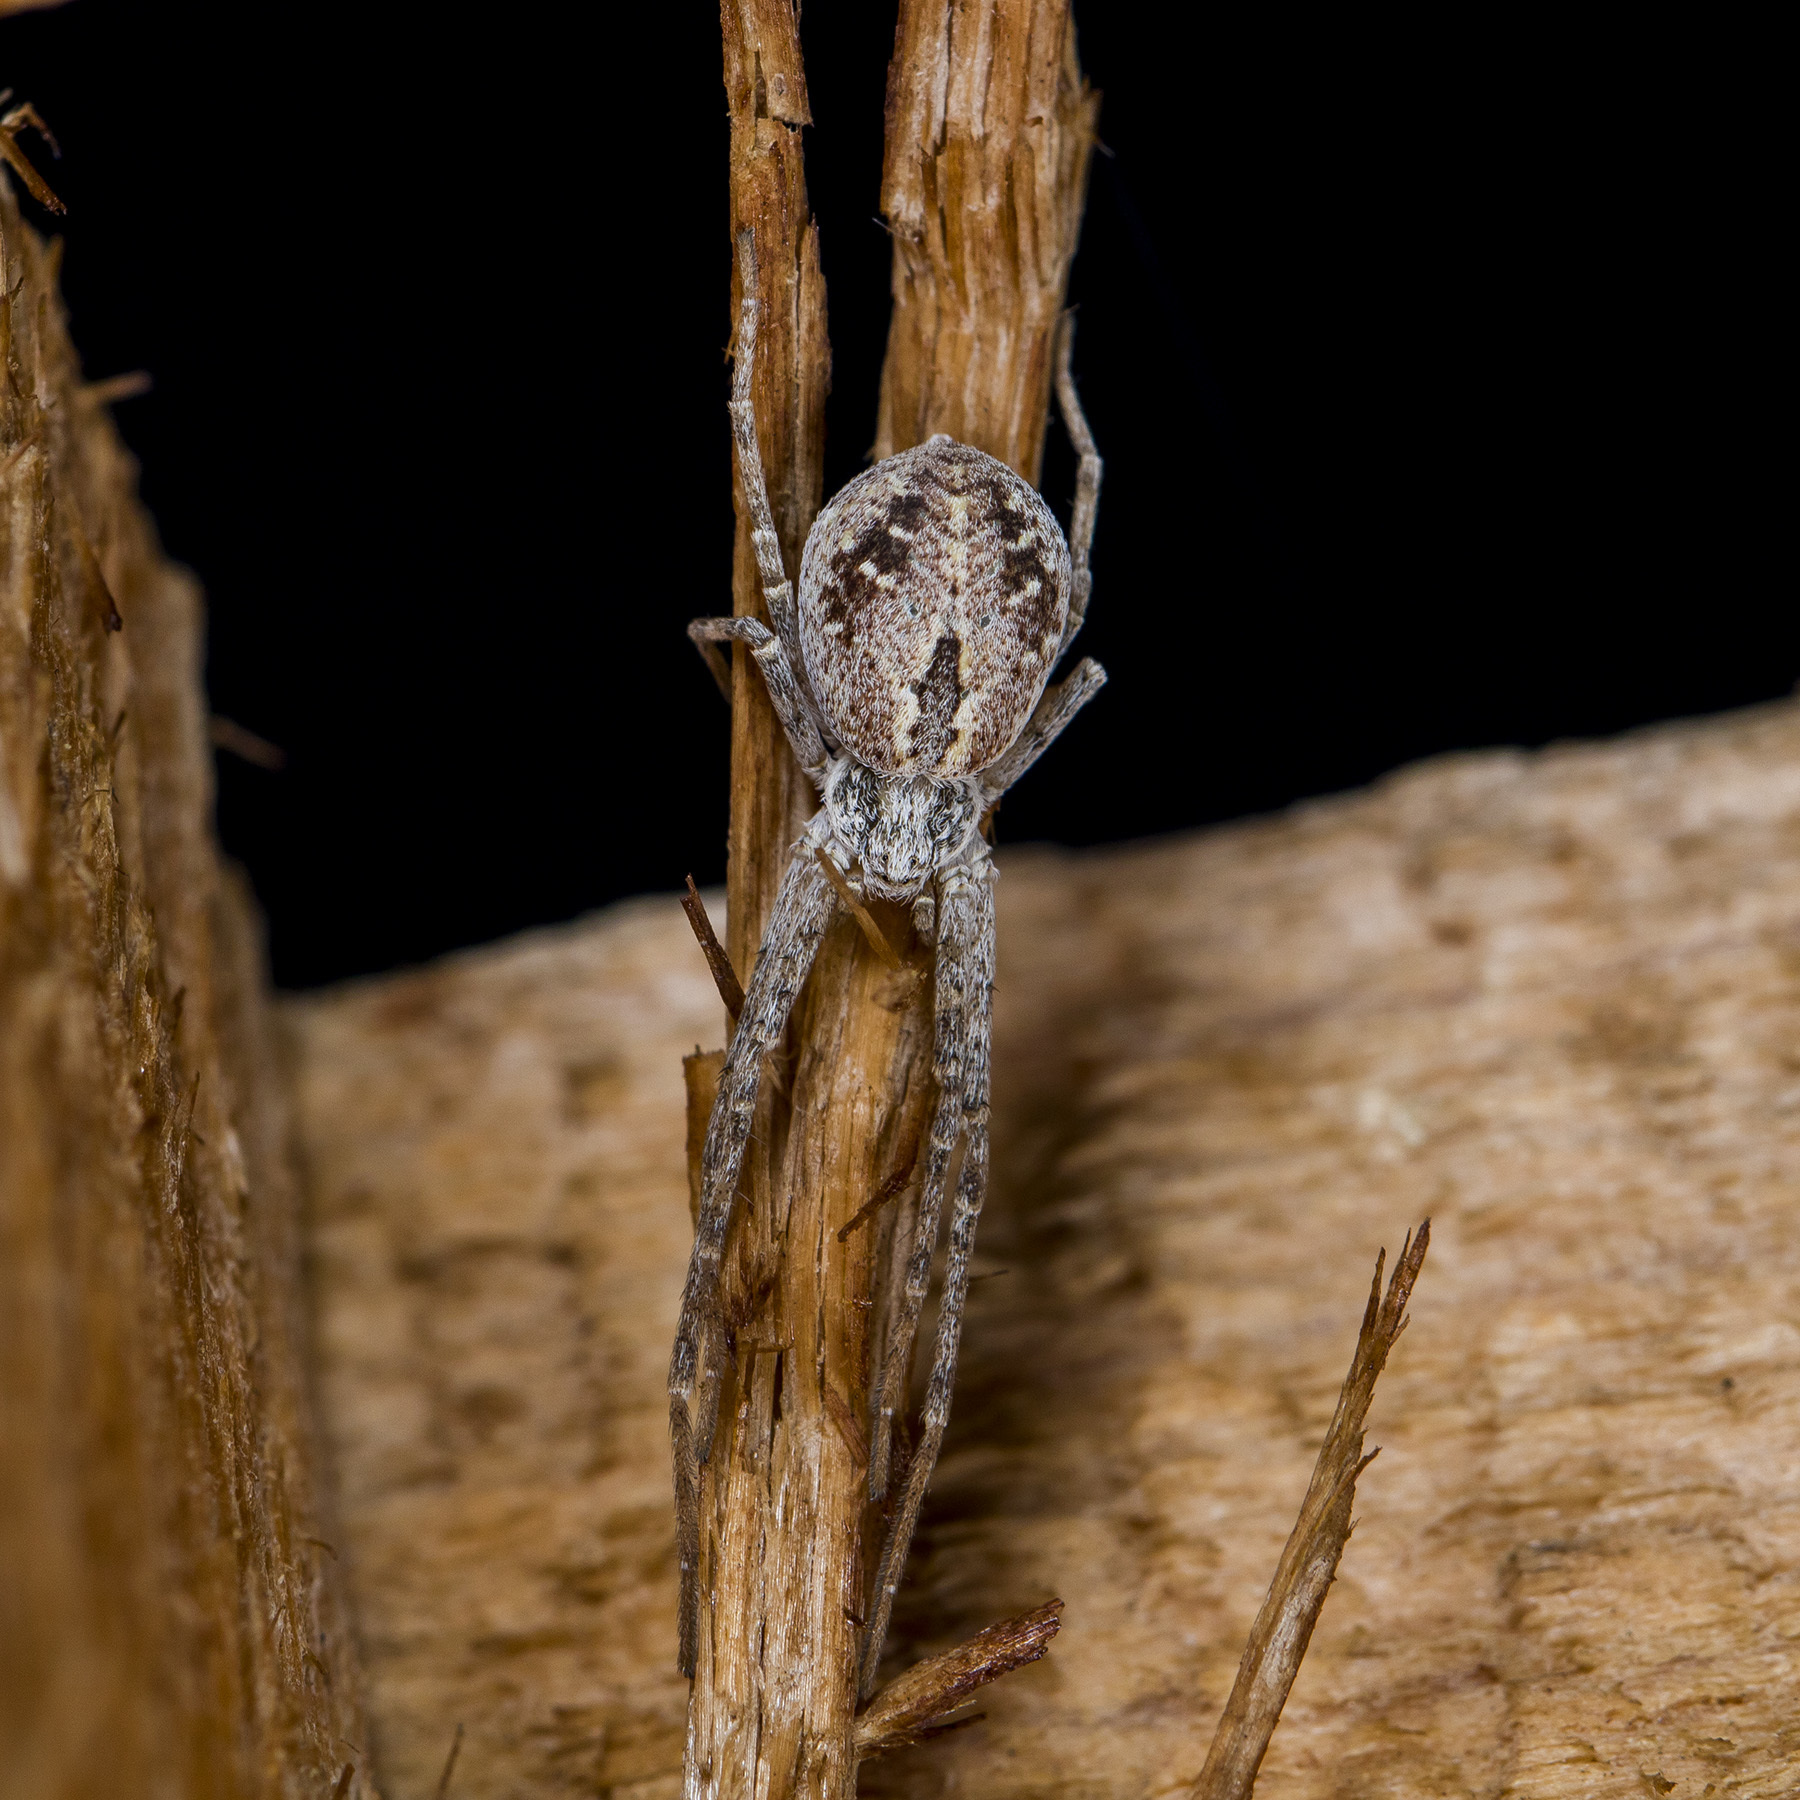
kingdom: Animalia
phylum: Arthropoda
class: Arachnida
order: Araneae
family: Philodromidae
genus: Rhysodromus
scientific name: Rhysodromus fallax
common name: Sand running-spider
